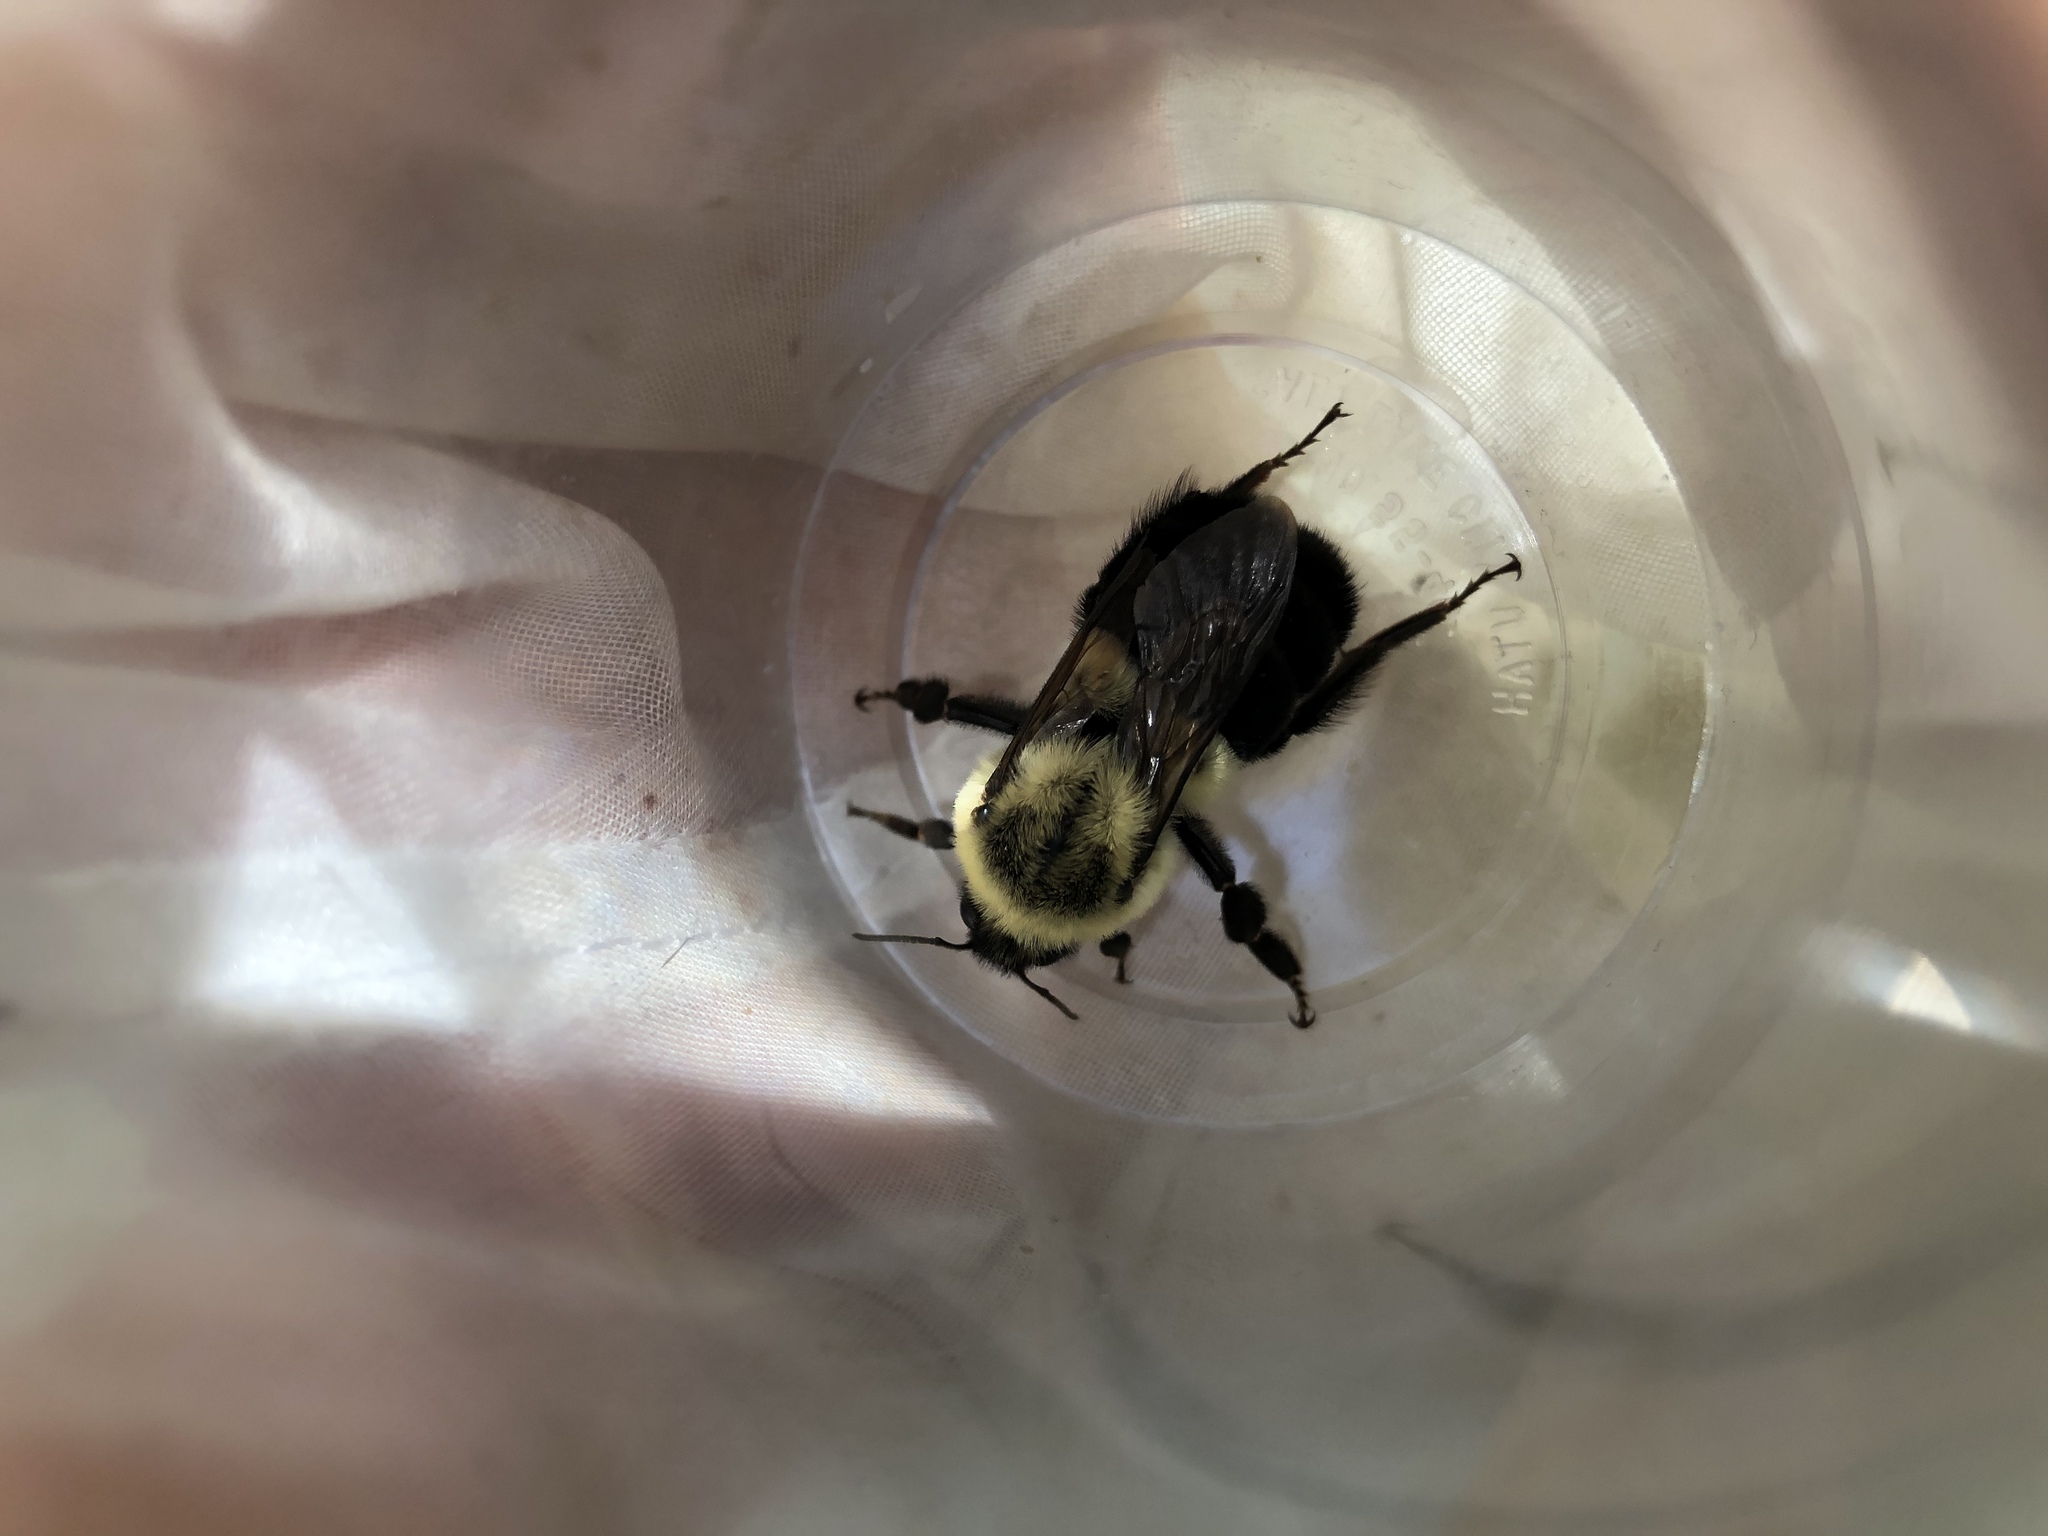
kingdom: Animalia
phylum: Arthropoda
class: Insecta
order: Hymenoptera
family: Apidae
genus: Bombus
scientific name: Bombus impatiens
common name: Common eastern bumble bee
